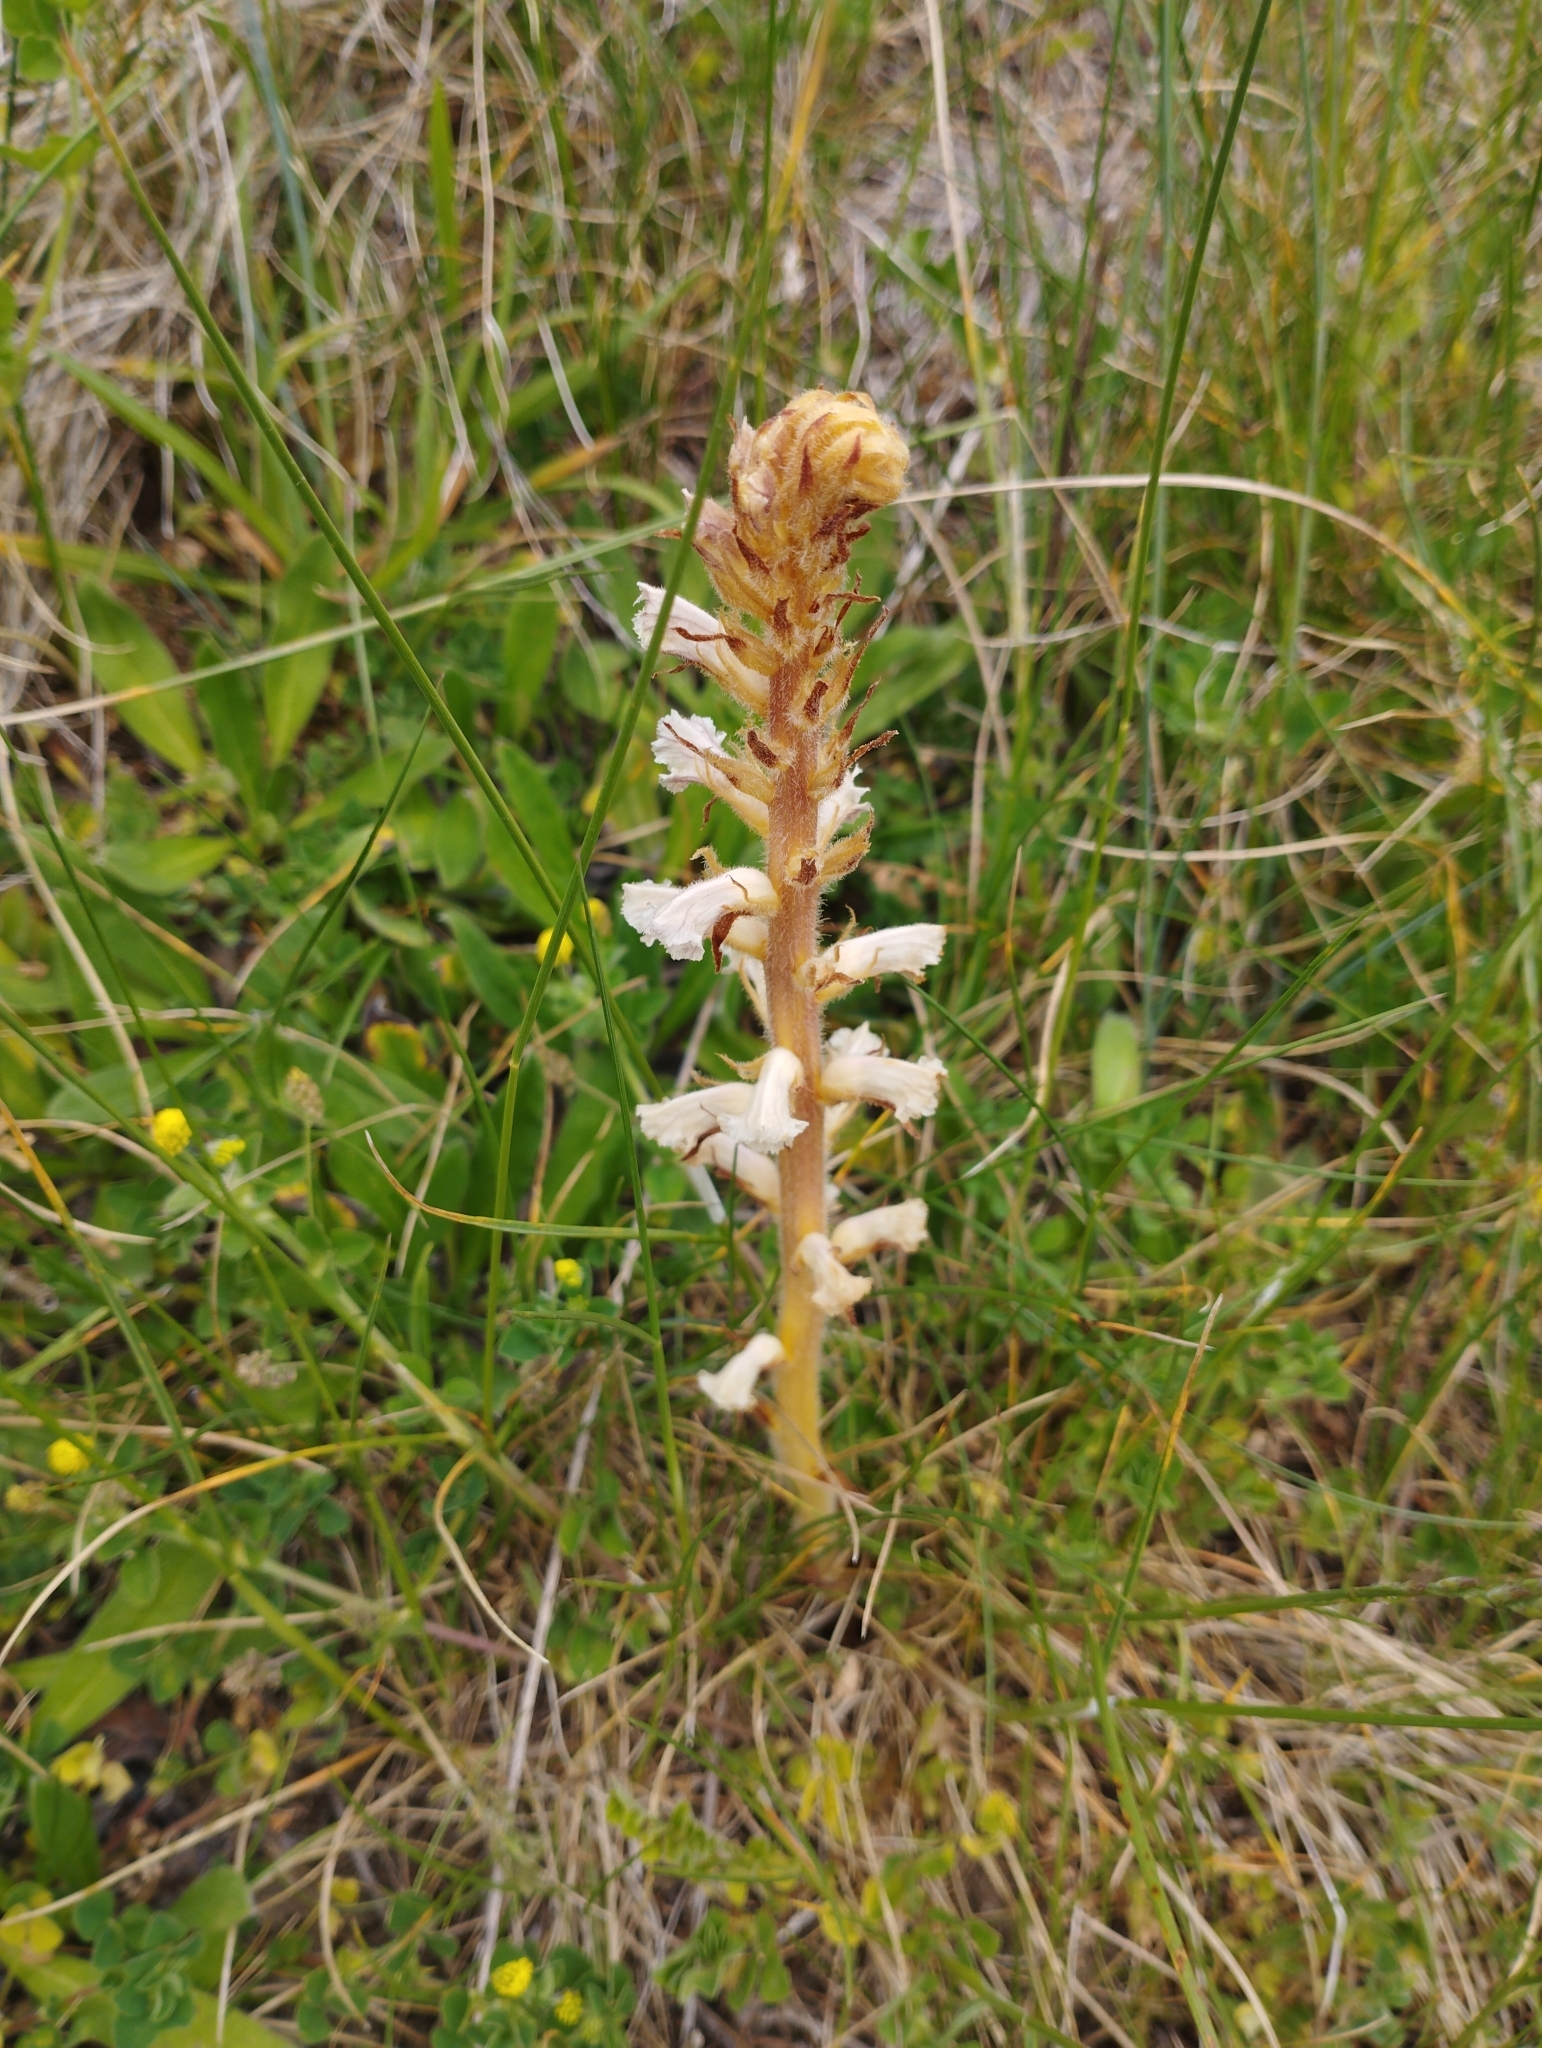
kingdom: Plantae
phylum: Tracheophyta
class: Magnoliopsida
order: Lamiales
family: Orobanchaceae
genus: Orobanche
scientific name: Orobanche minor
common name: Common broomrape
